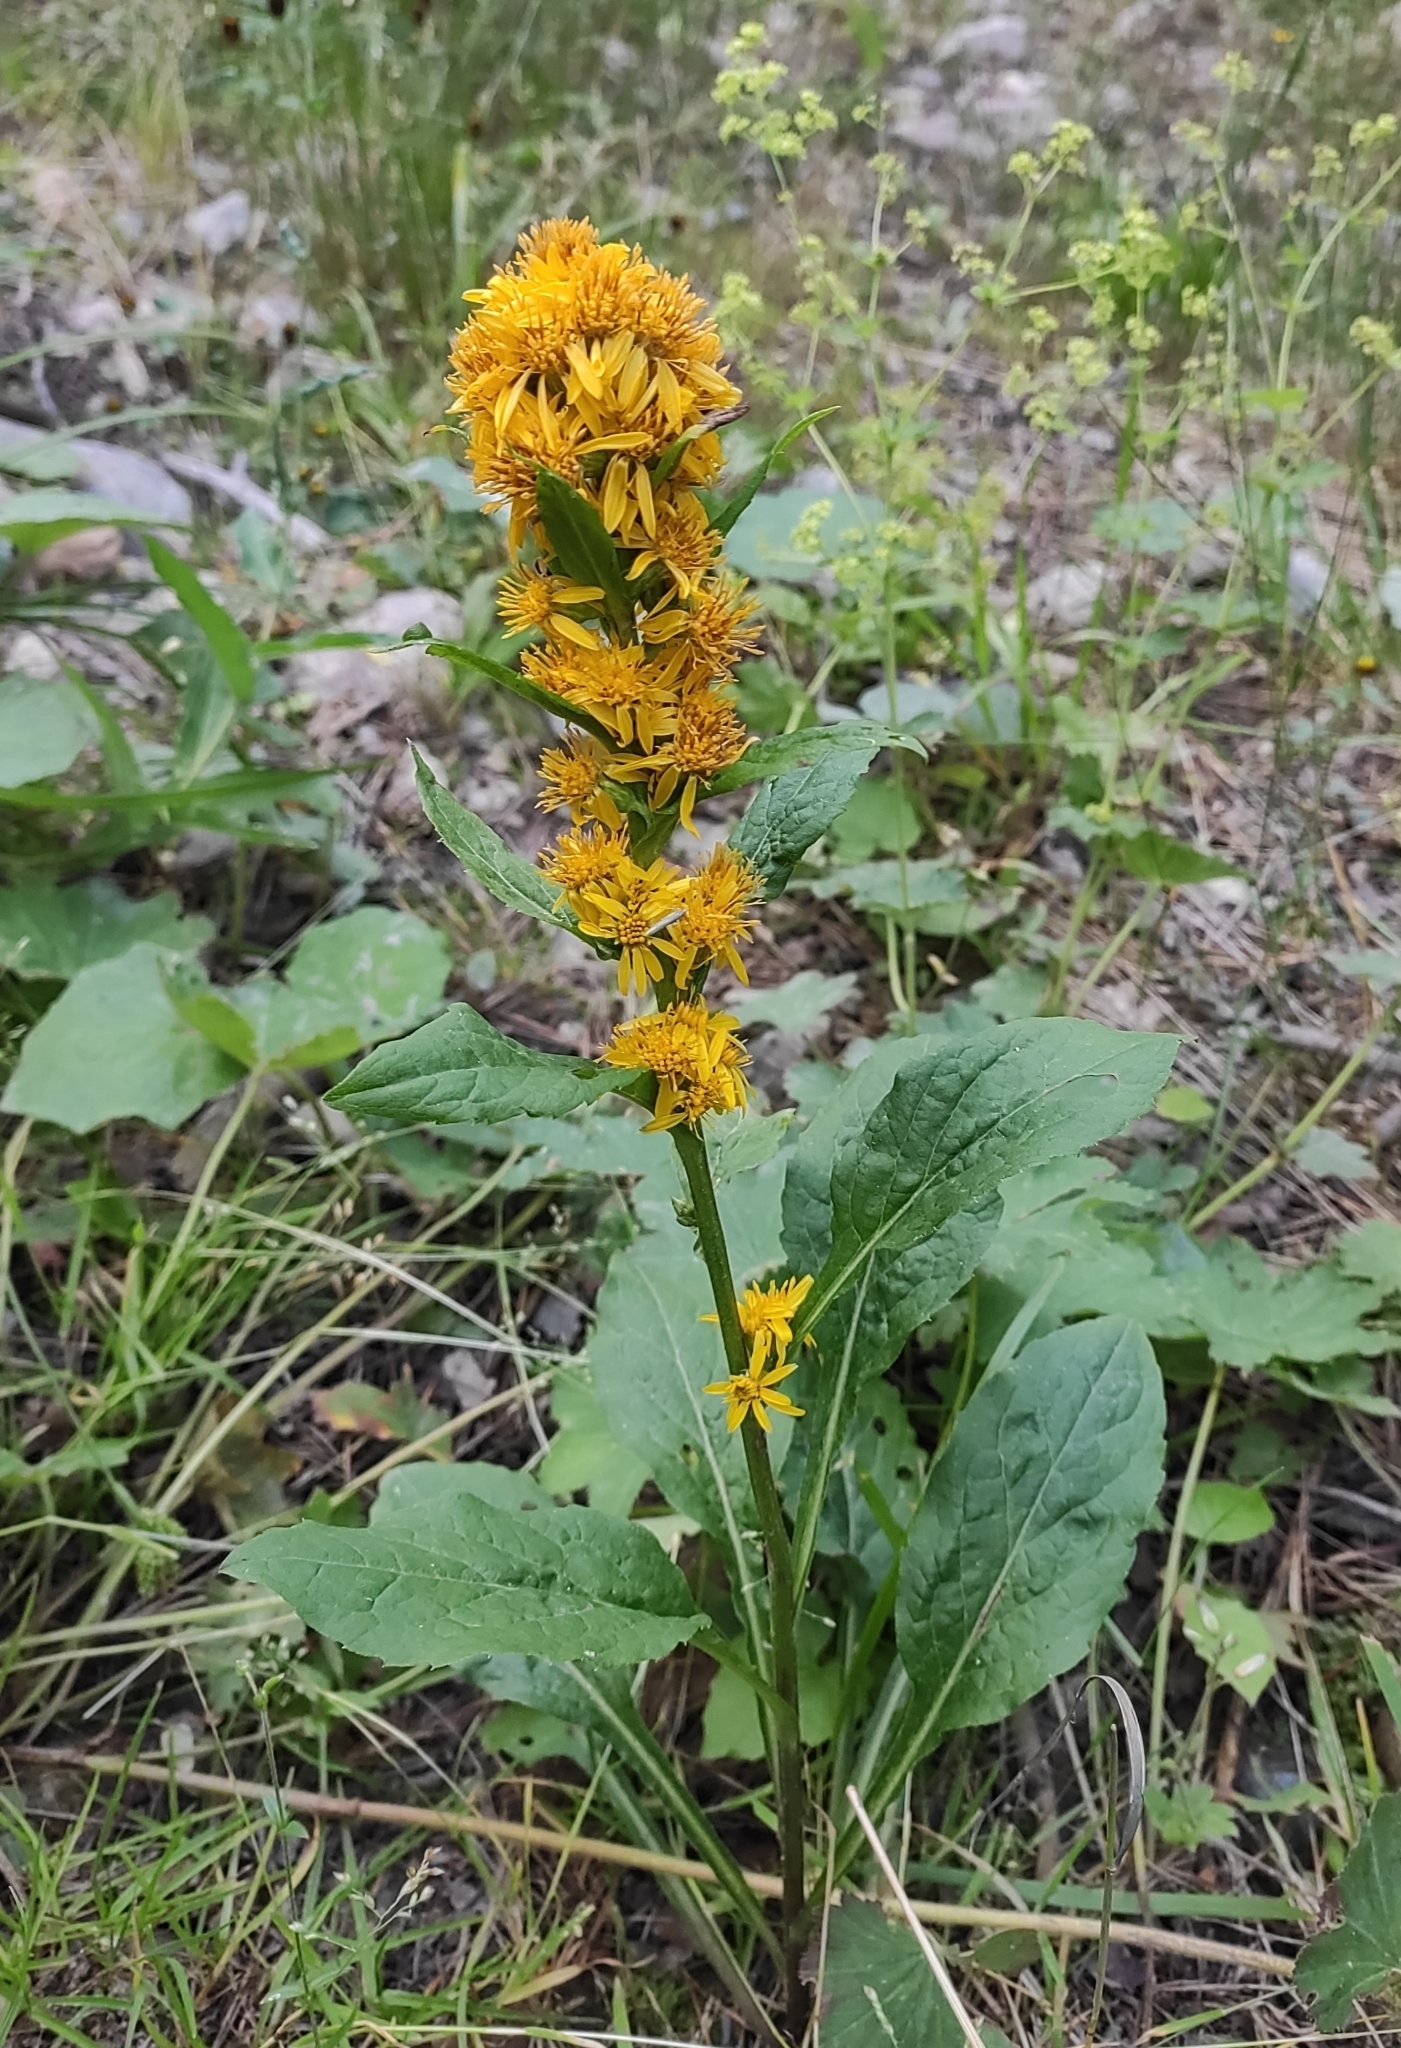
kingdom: Plantae
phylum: Tracheophyta
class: Magnoliopsida
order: Asterales
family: Asteraceae
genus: Solidago
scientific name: Solidago virgaurea
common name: Goldenrod
